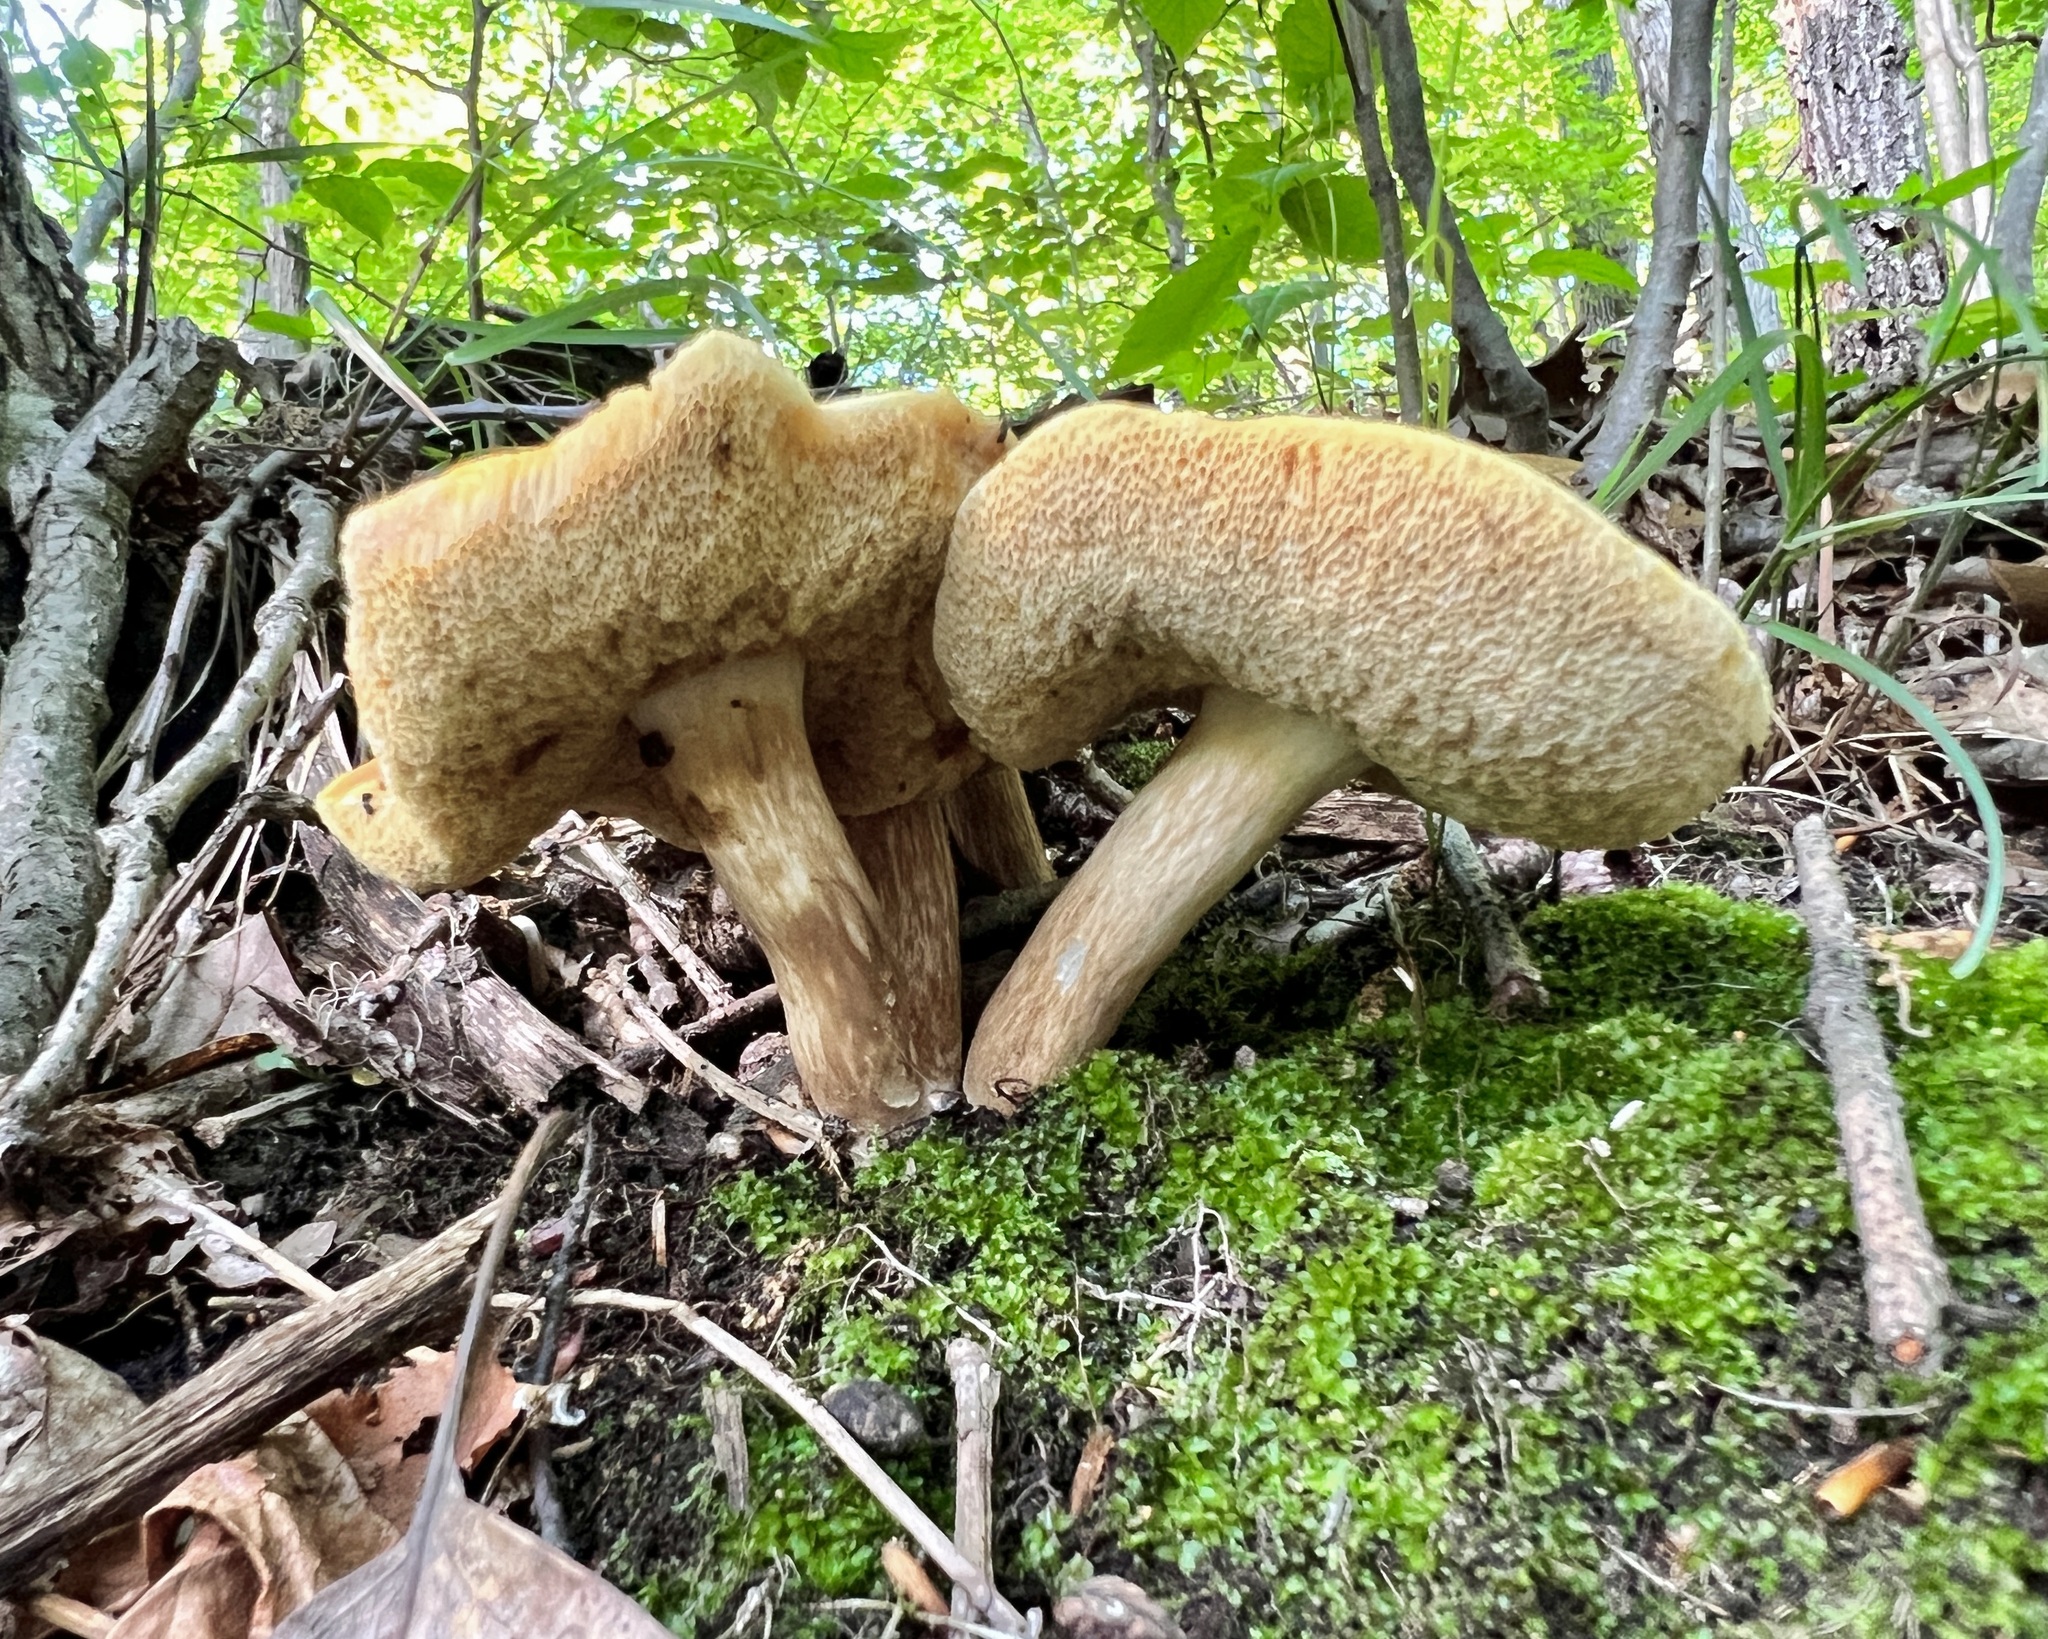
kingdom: Fungi
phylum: Basidiomycota
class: Agaricomycetes
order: Boletales
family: Boletaceae
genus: Xanthoconium
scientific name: Xanthoconium affine
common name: Spotted bolete
